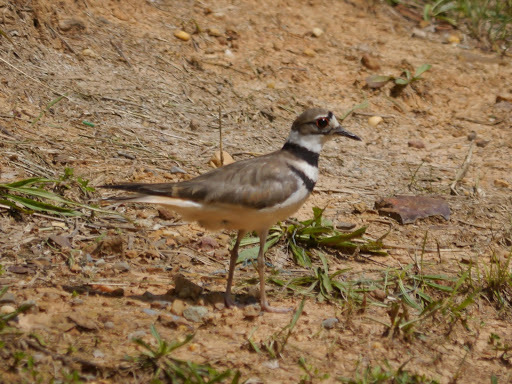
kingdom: Animalia
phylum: Chordata
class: Aves
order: Charadriiformes
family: Charadriidae
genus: Charadrius
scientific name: Charadrius vociferus
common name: Killdeer
